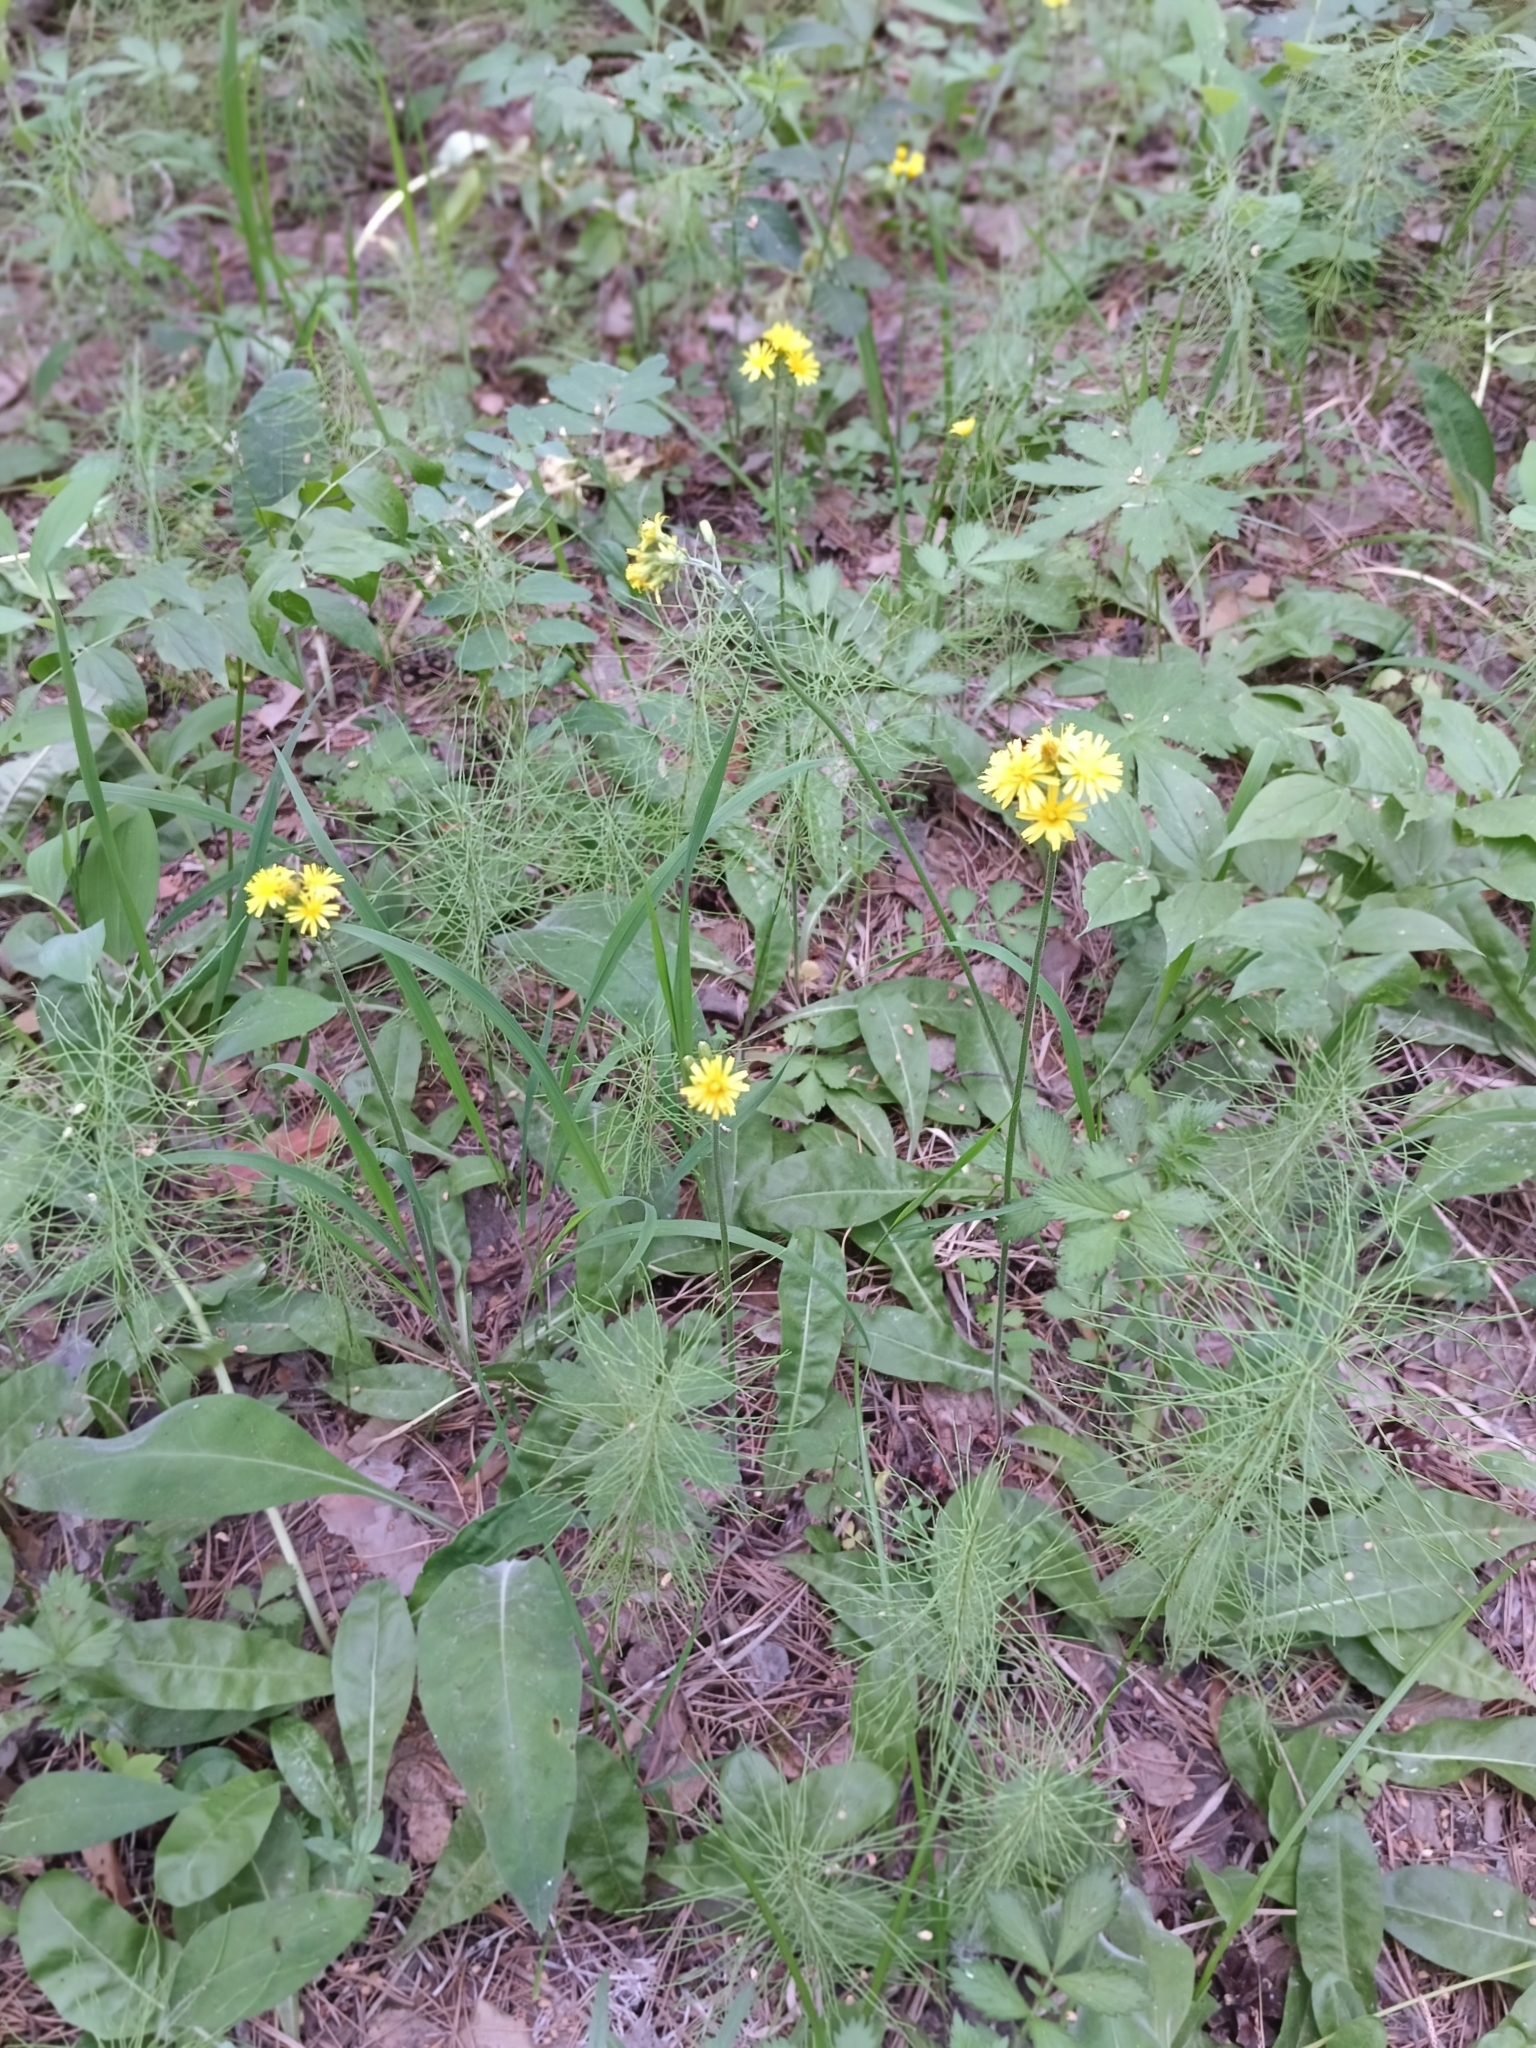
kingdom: Plantae
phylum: Tracheophyta
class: Magnoliopsida
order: Asterales
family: Asteraceae
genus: Crepis
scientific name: Crepis praemorsa
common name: Leafless hawk's-beard
